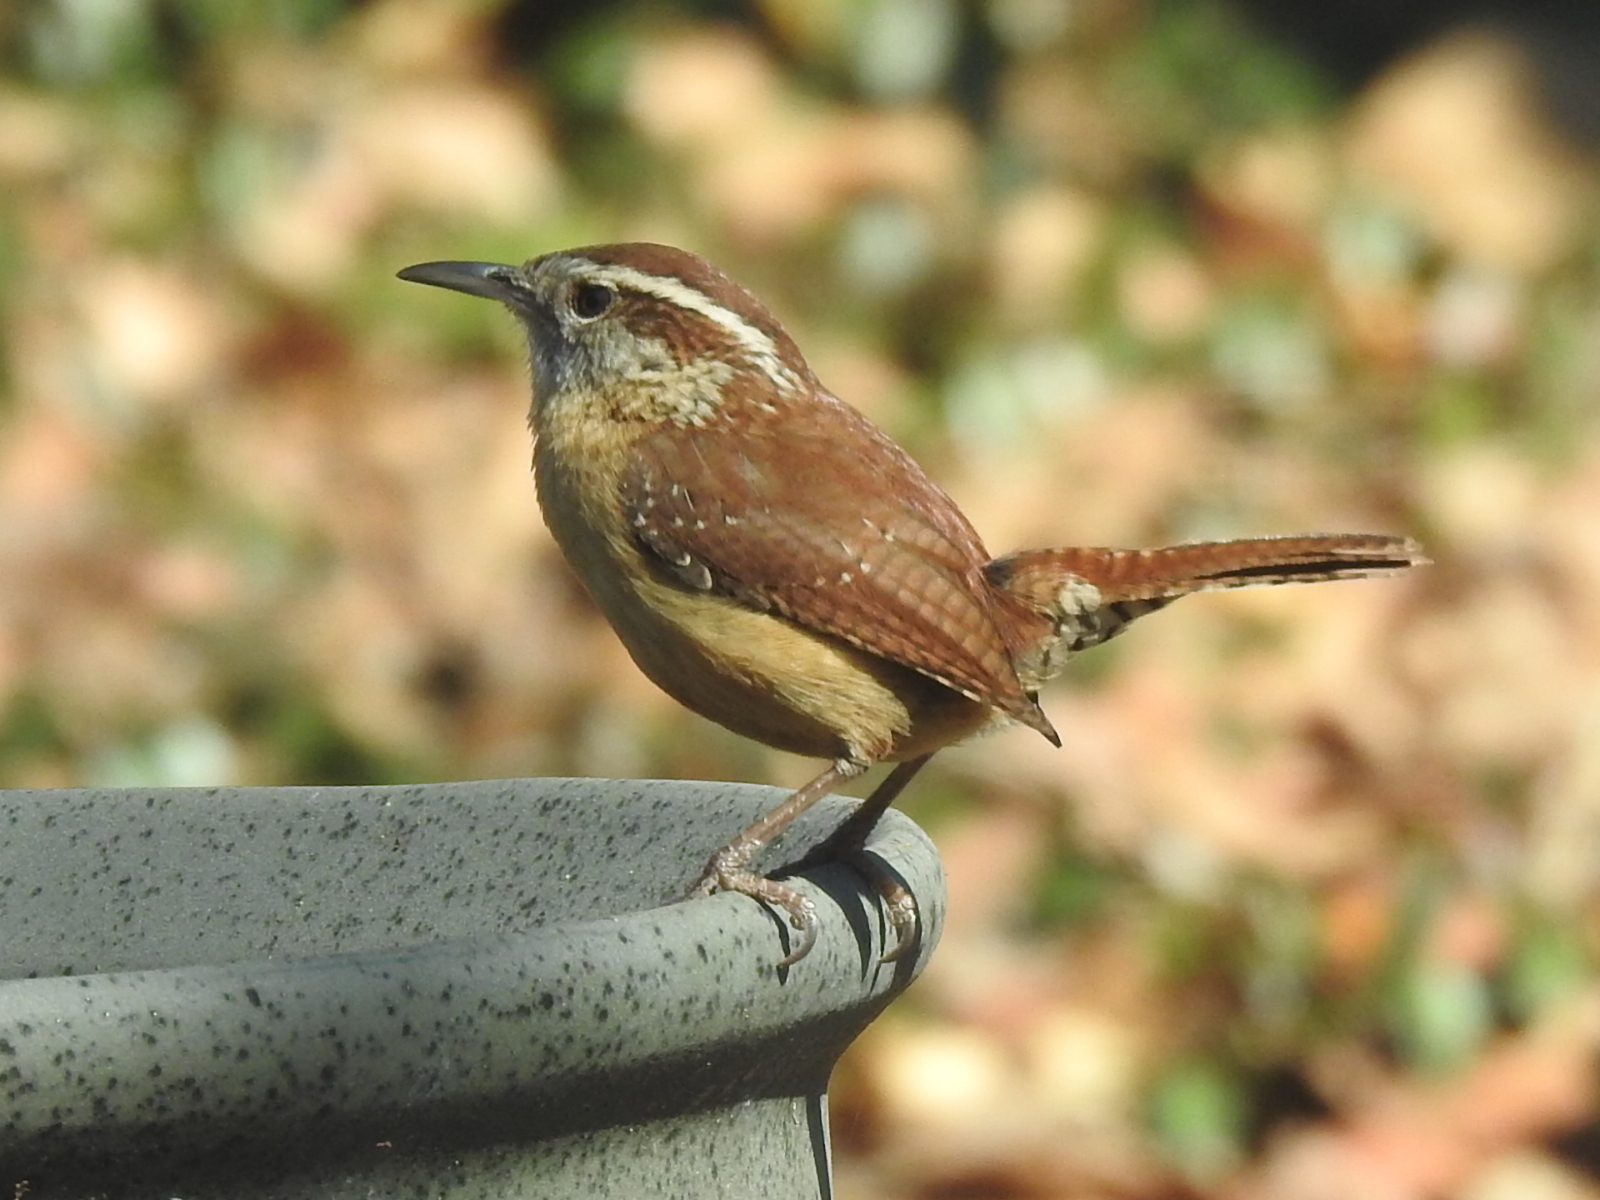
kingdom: Animalia
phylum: Chordata
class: Aves
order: Passeriformes
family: Troglodytidae
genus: Thryothorus
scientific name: Thryothorus ludovicianus
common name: Carolina wren
